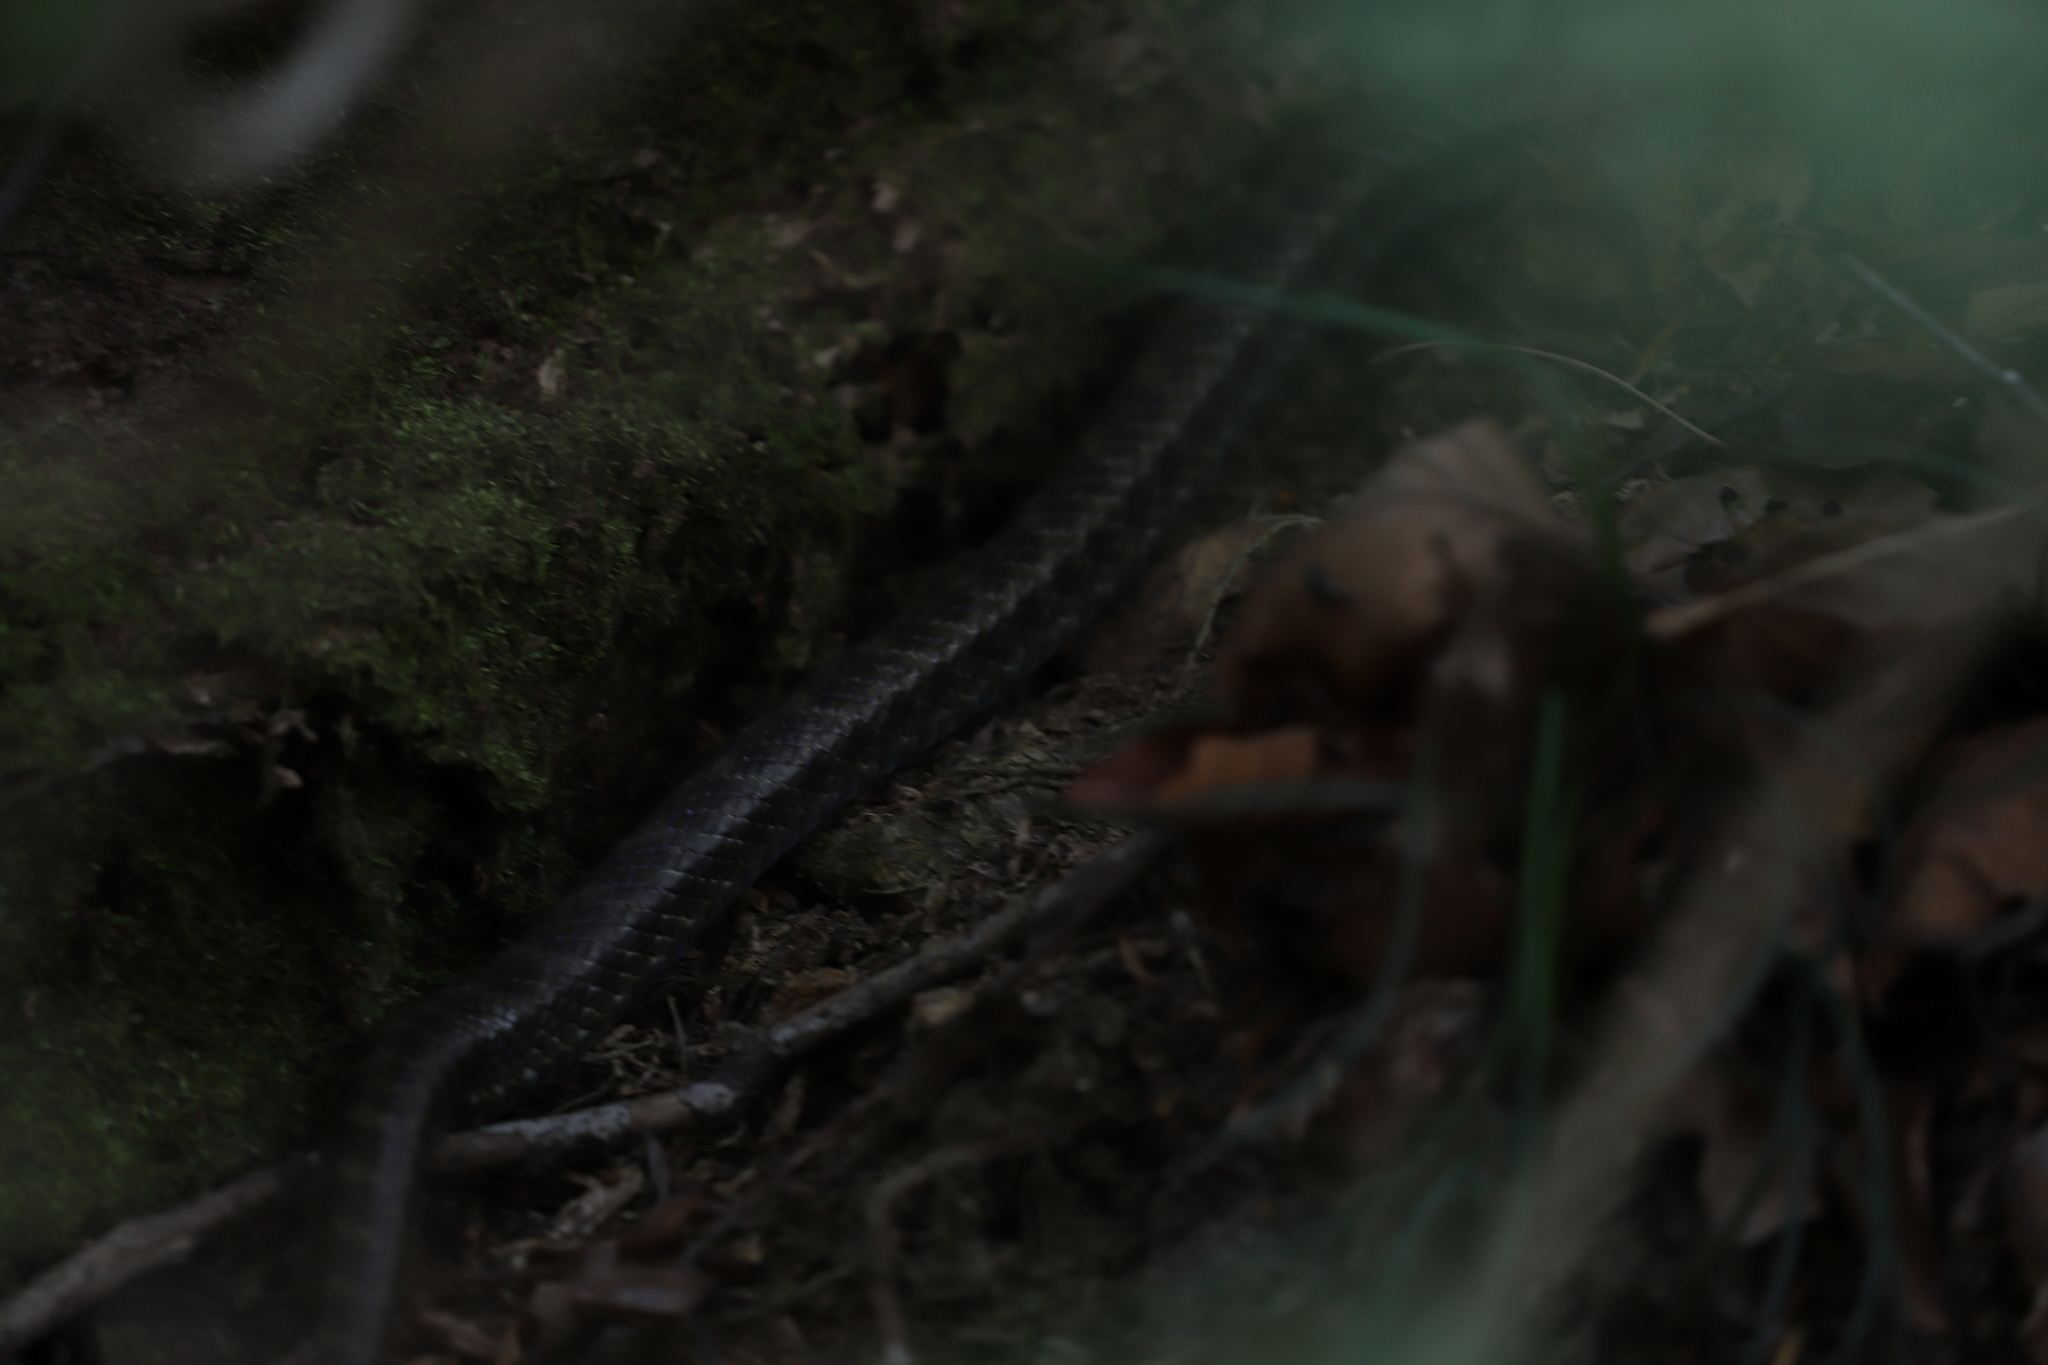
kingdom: Animalia
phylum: Chordata
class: Squamata
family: Colubridae
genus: Elaphe
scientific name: Elaphe climacophora
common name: Japanese ratsnake
